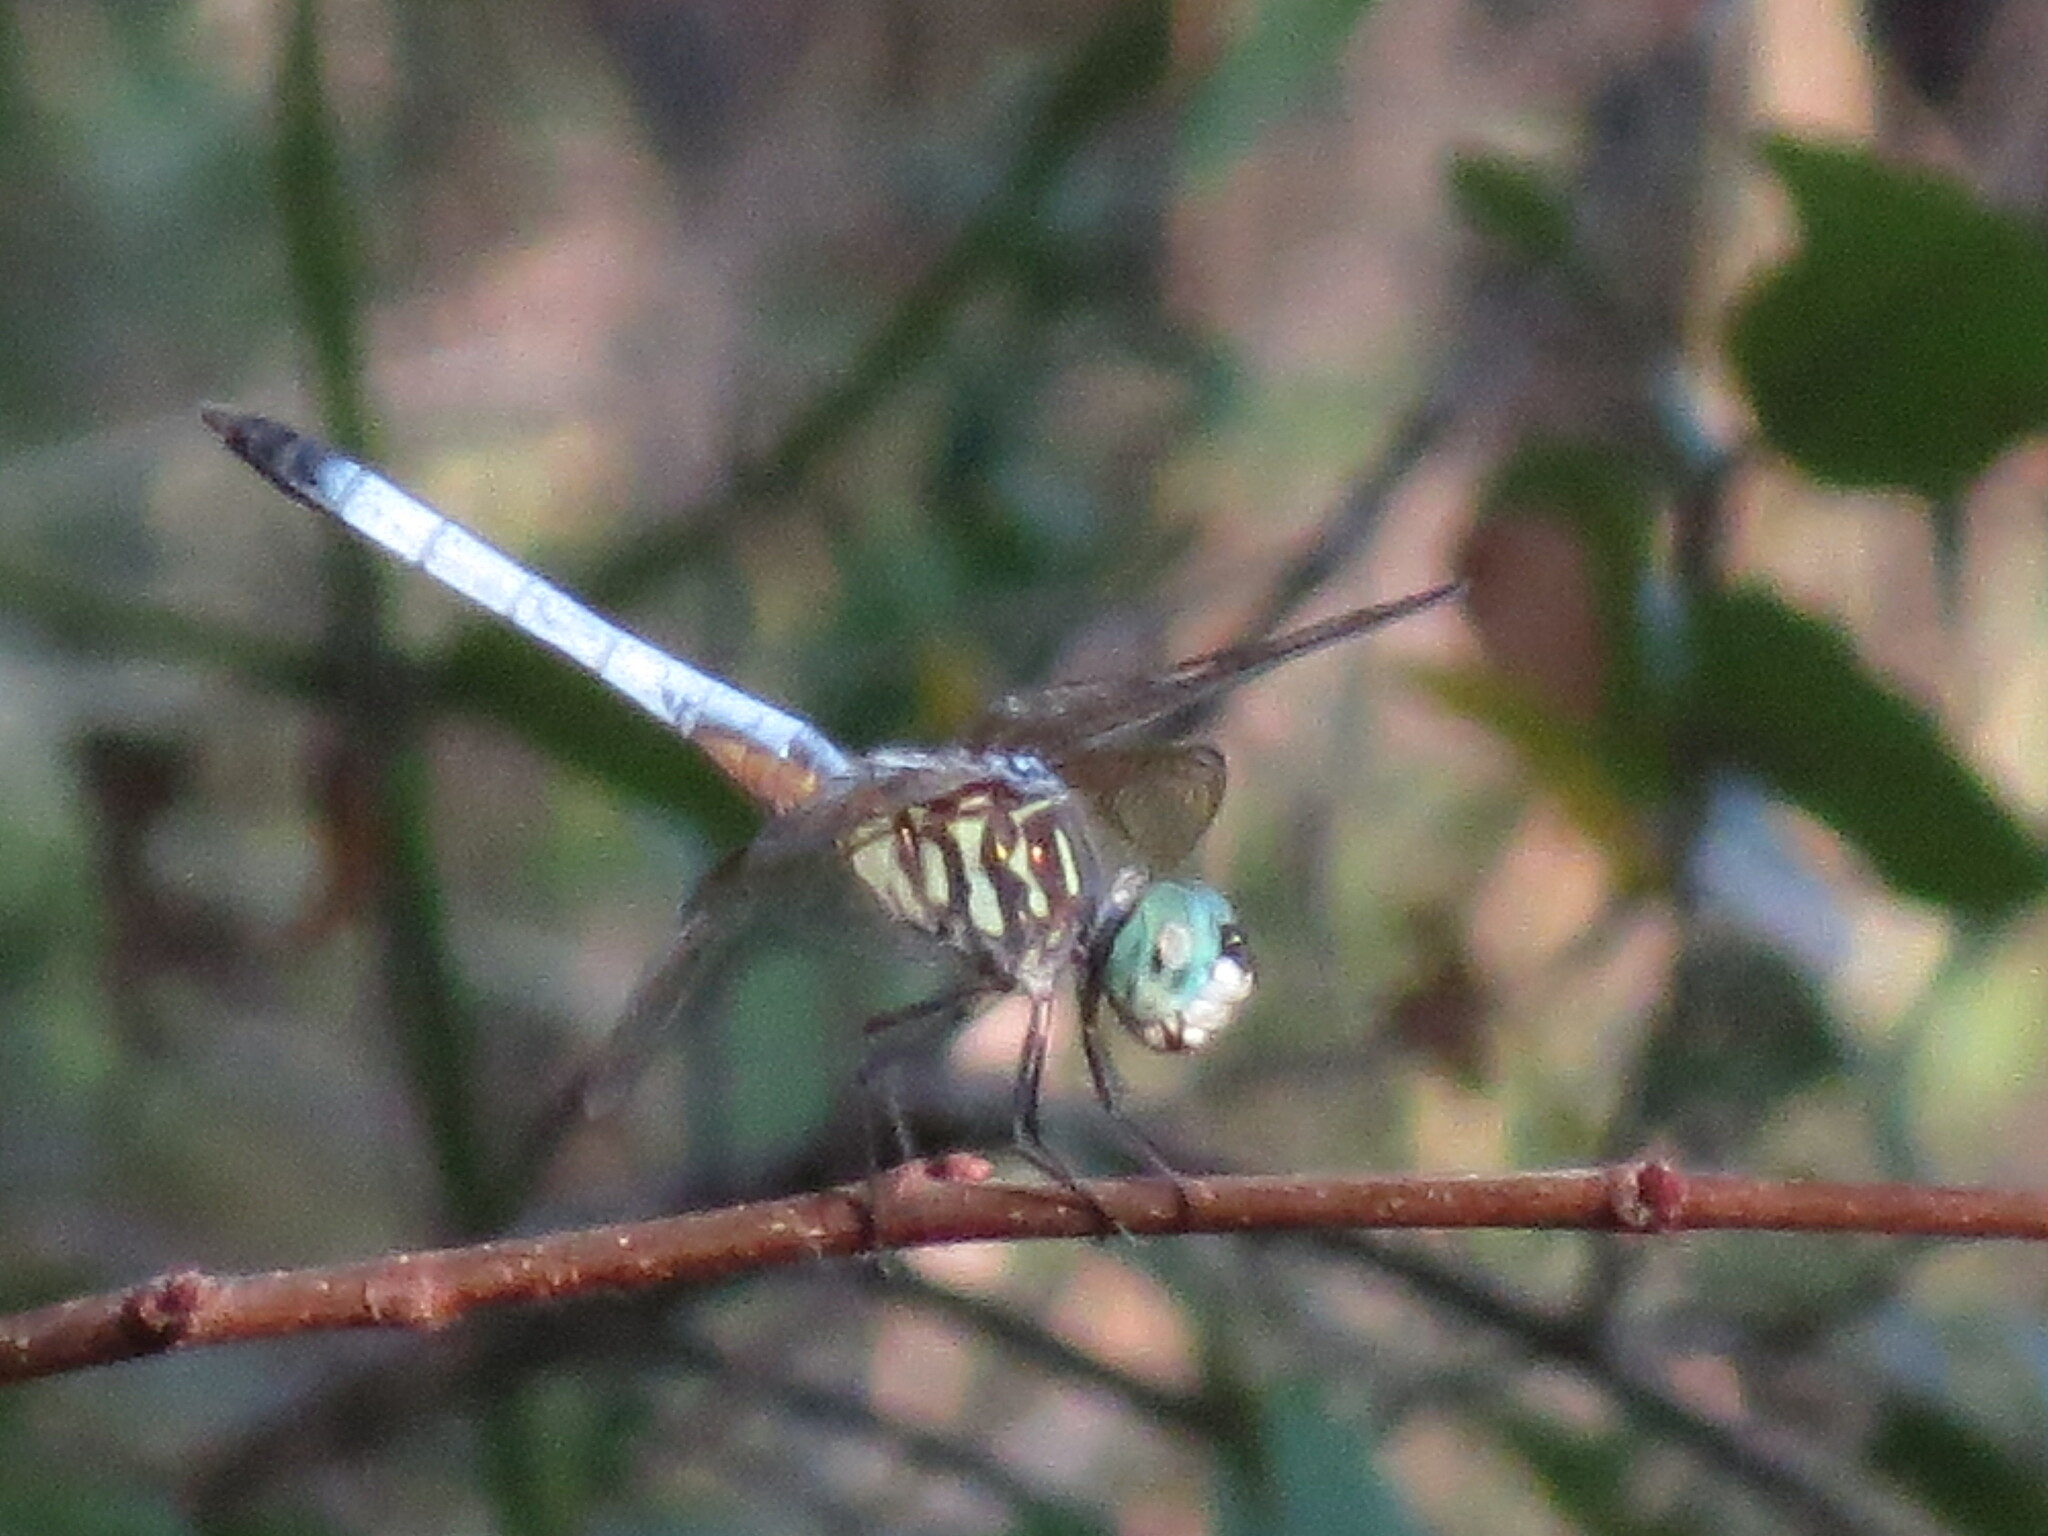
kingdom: Animalia
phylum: Arthropoda
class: Insecta
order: Odonata
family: Libellulidae
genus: Pachydiplax
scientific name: Pachydiplax longipennis
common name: Blue dasher
